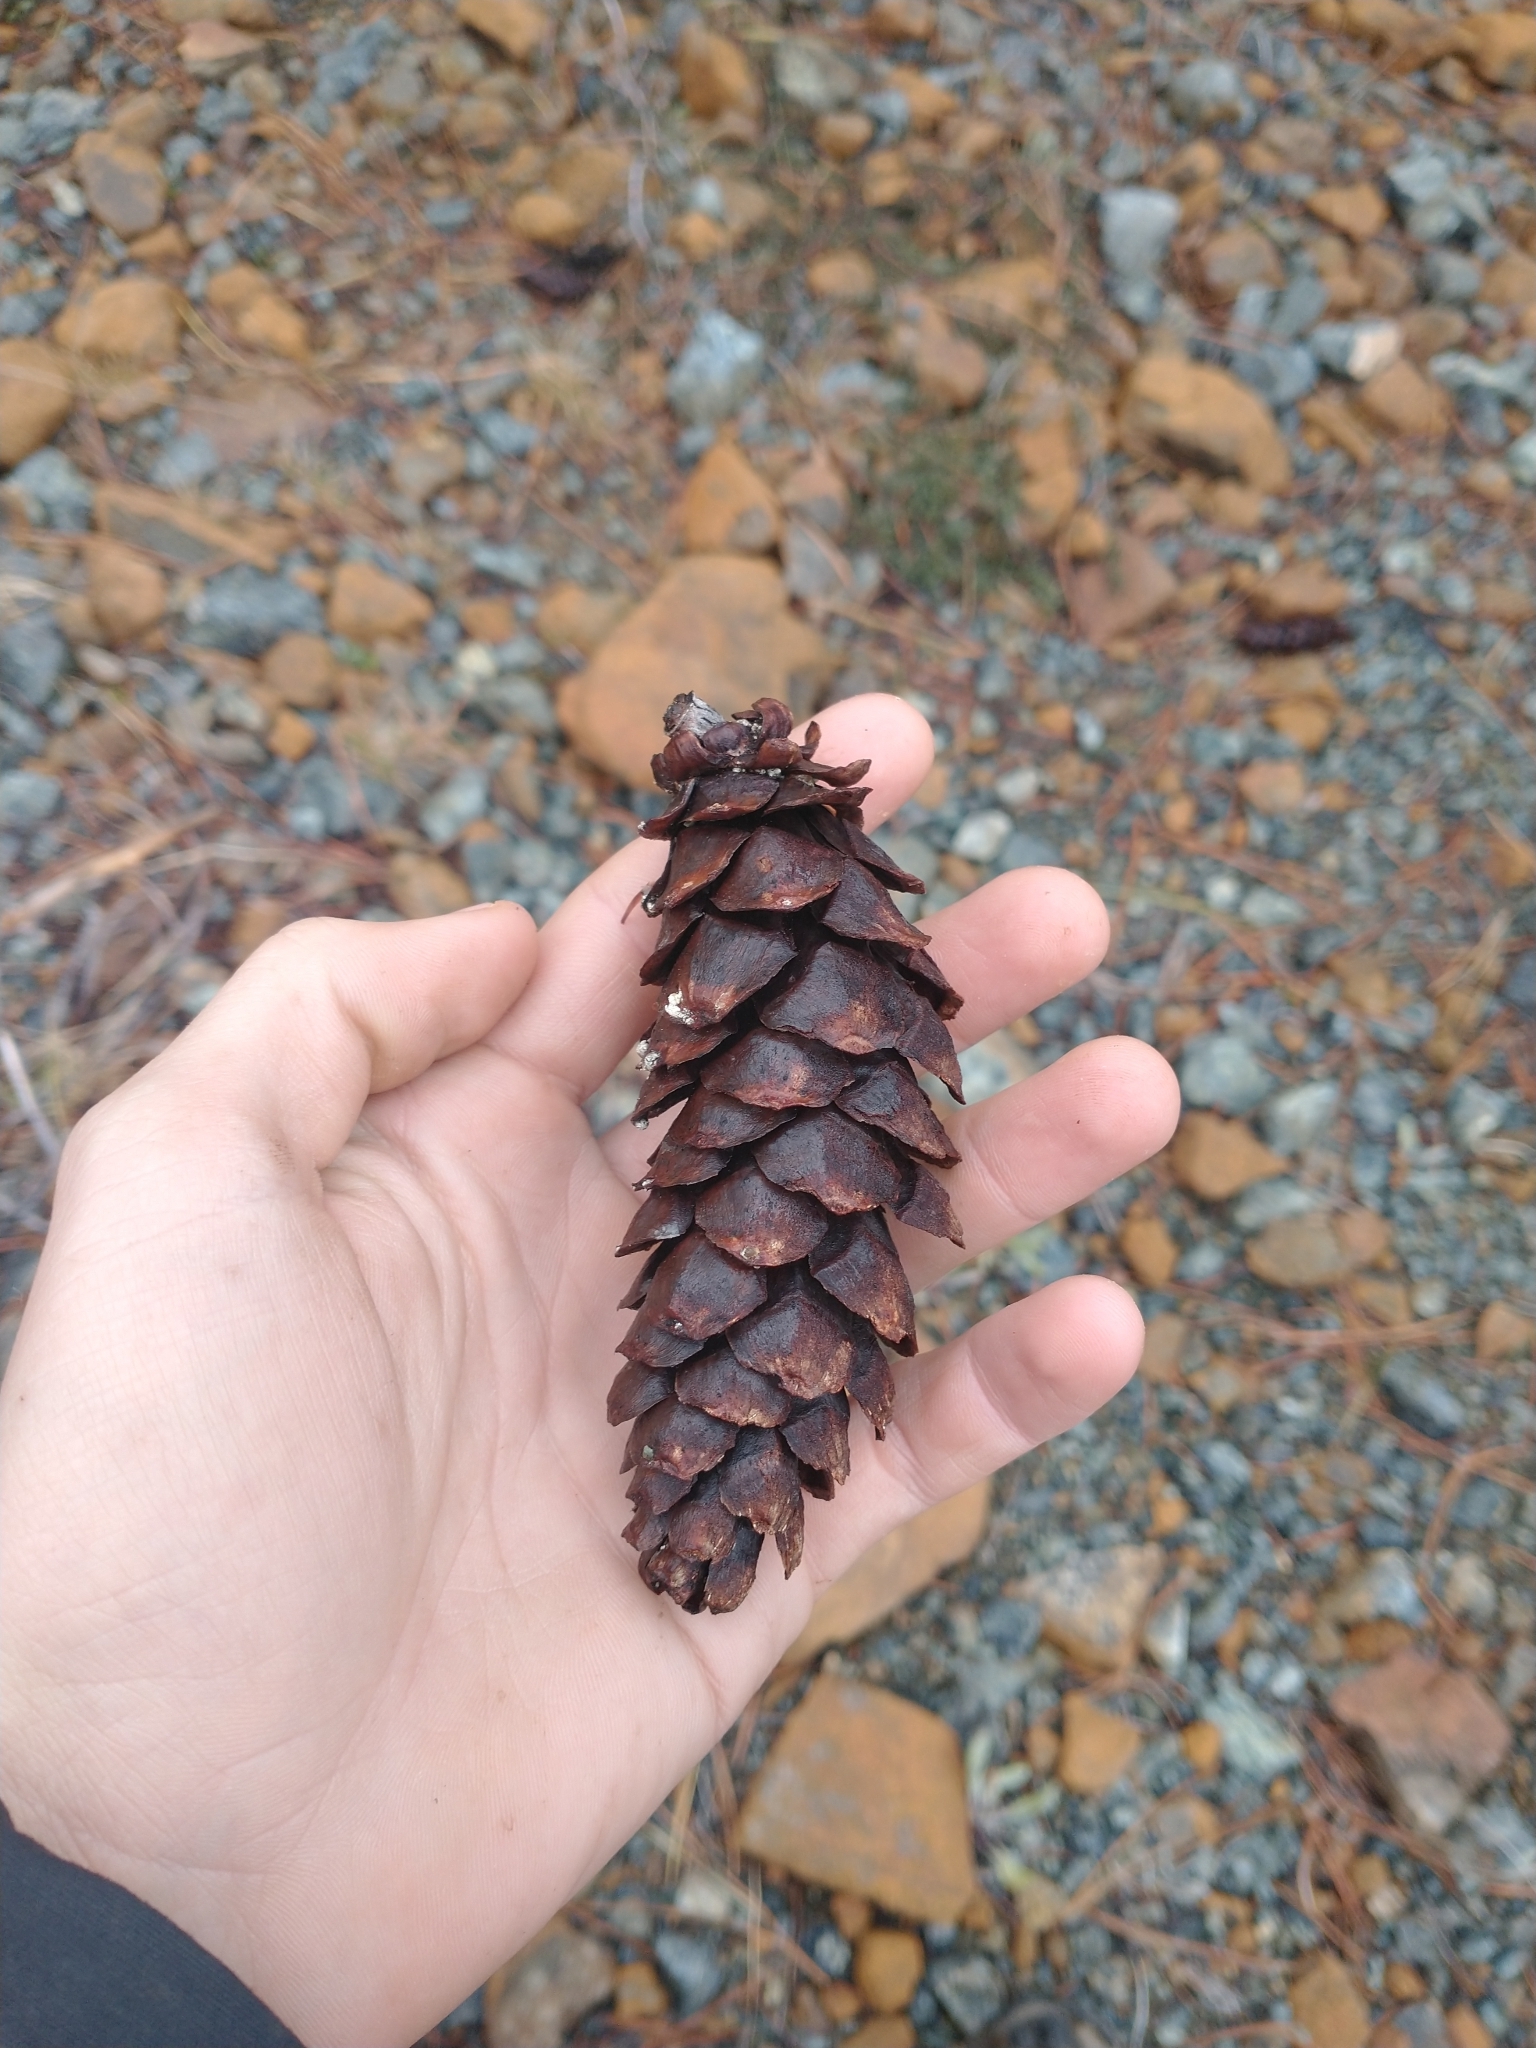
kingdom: Plantae
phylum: Tracheophyta
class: Pinopsida
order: Pinales
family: Pinaceae
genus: Pinus
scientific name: Pinus monticola
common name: Western white pine
